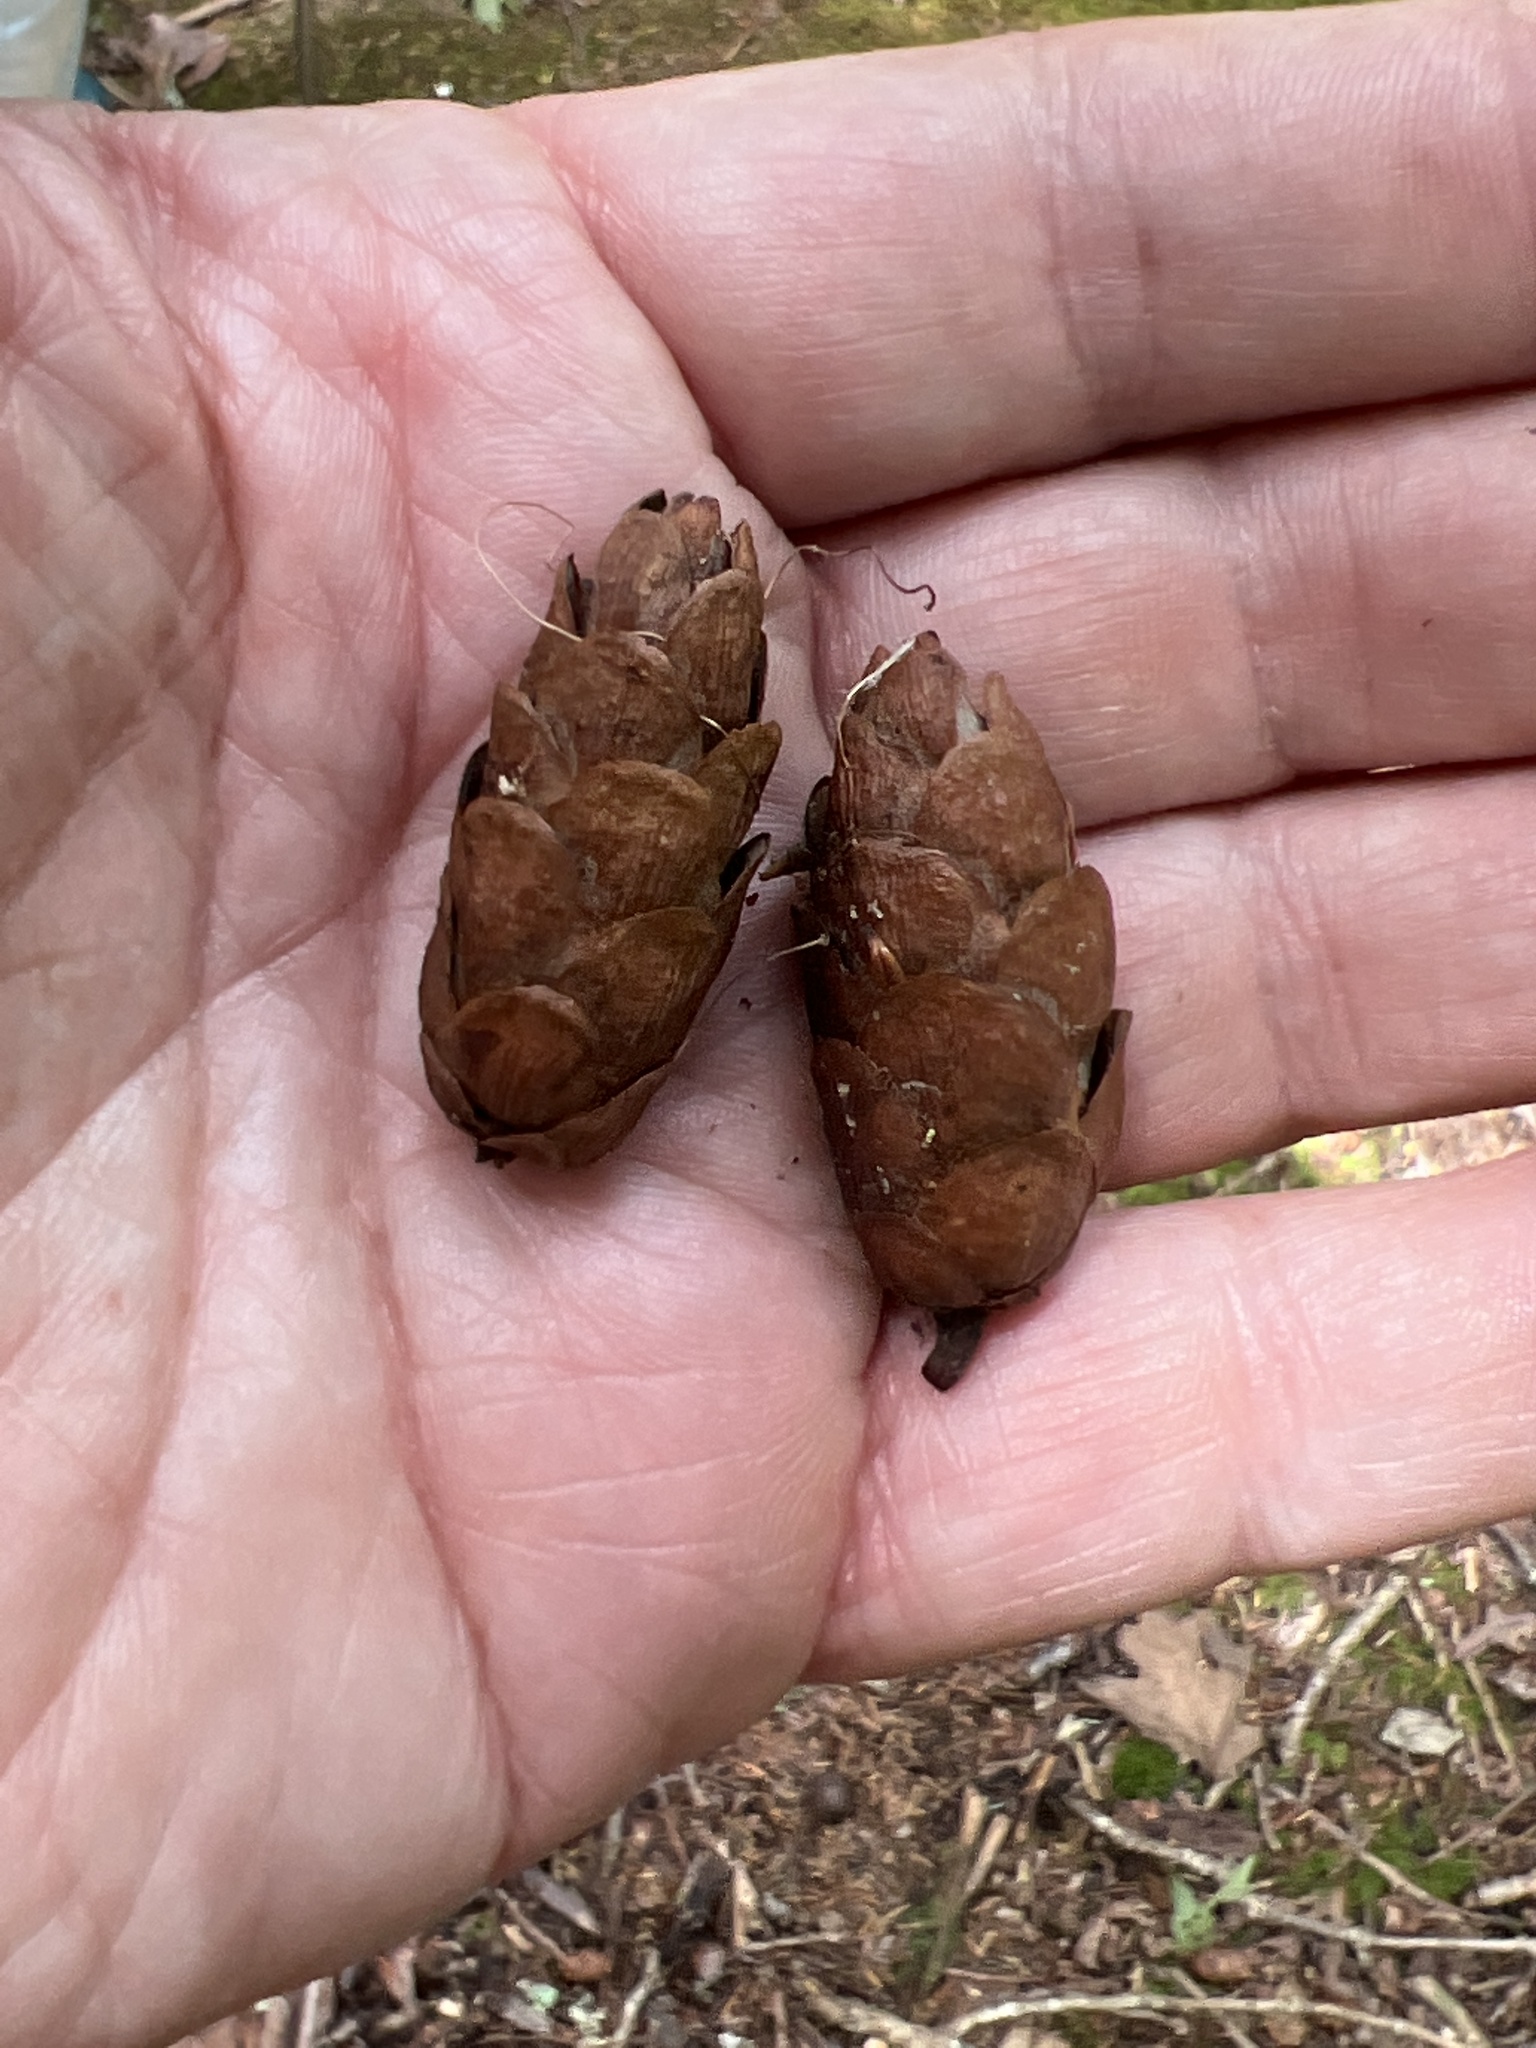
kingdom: Plantae
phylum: Tracheophyta
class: Pinopsida
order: Pinales
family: Pinaceae
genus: Tsuga
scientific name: Tsuga caroliniana
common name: Carolina hemlock
